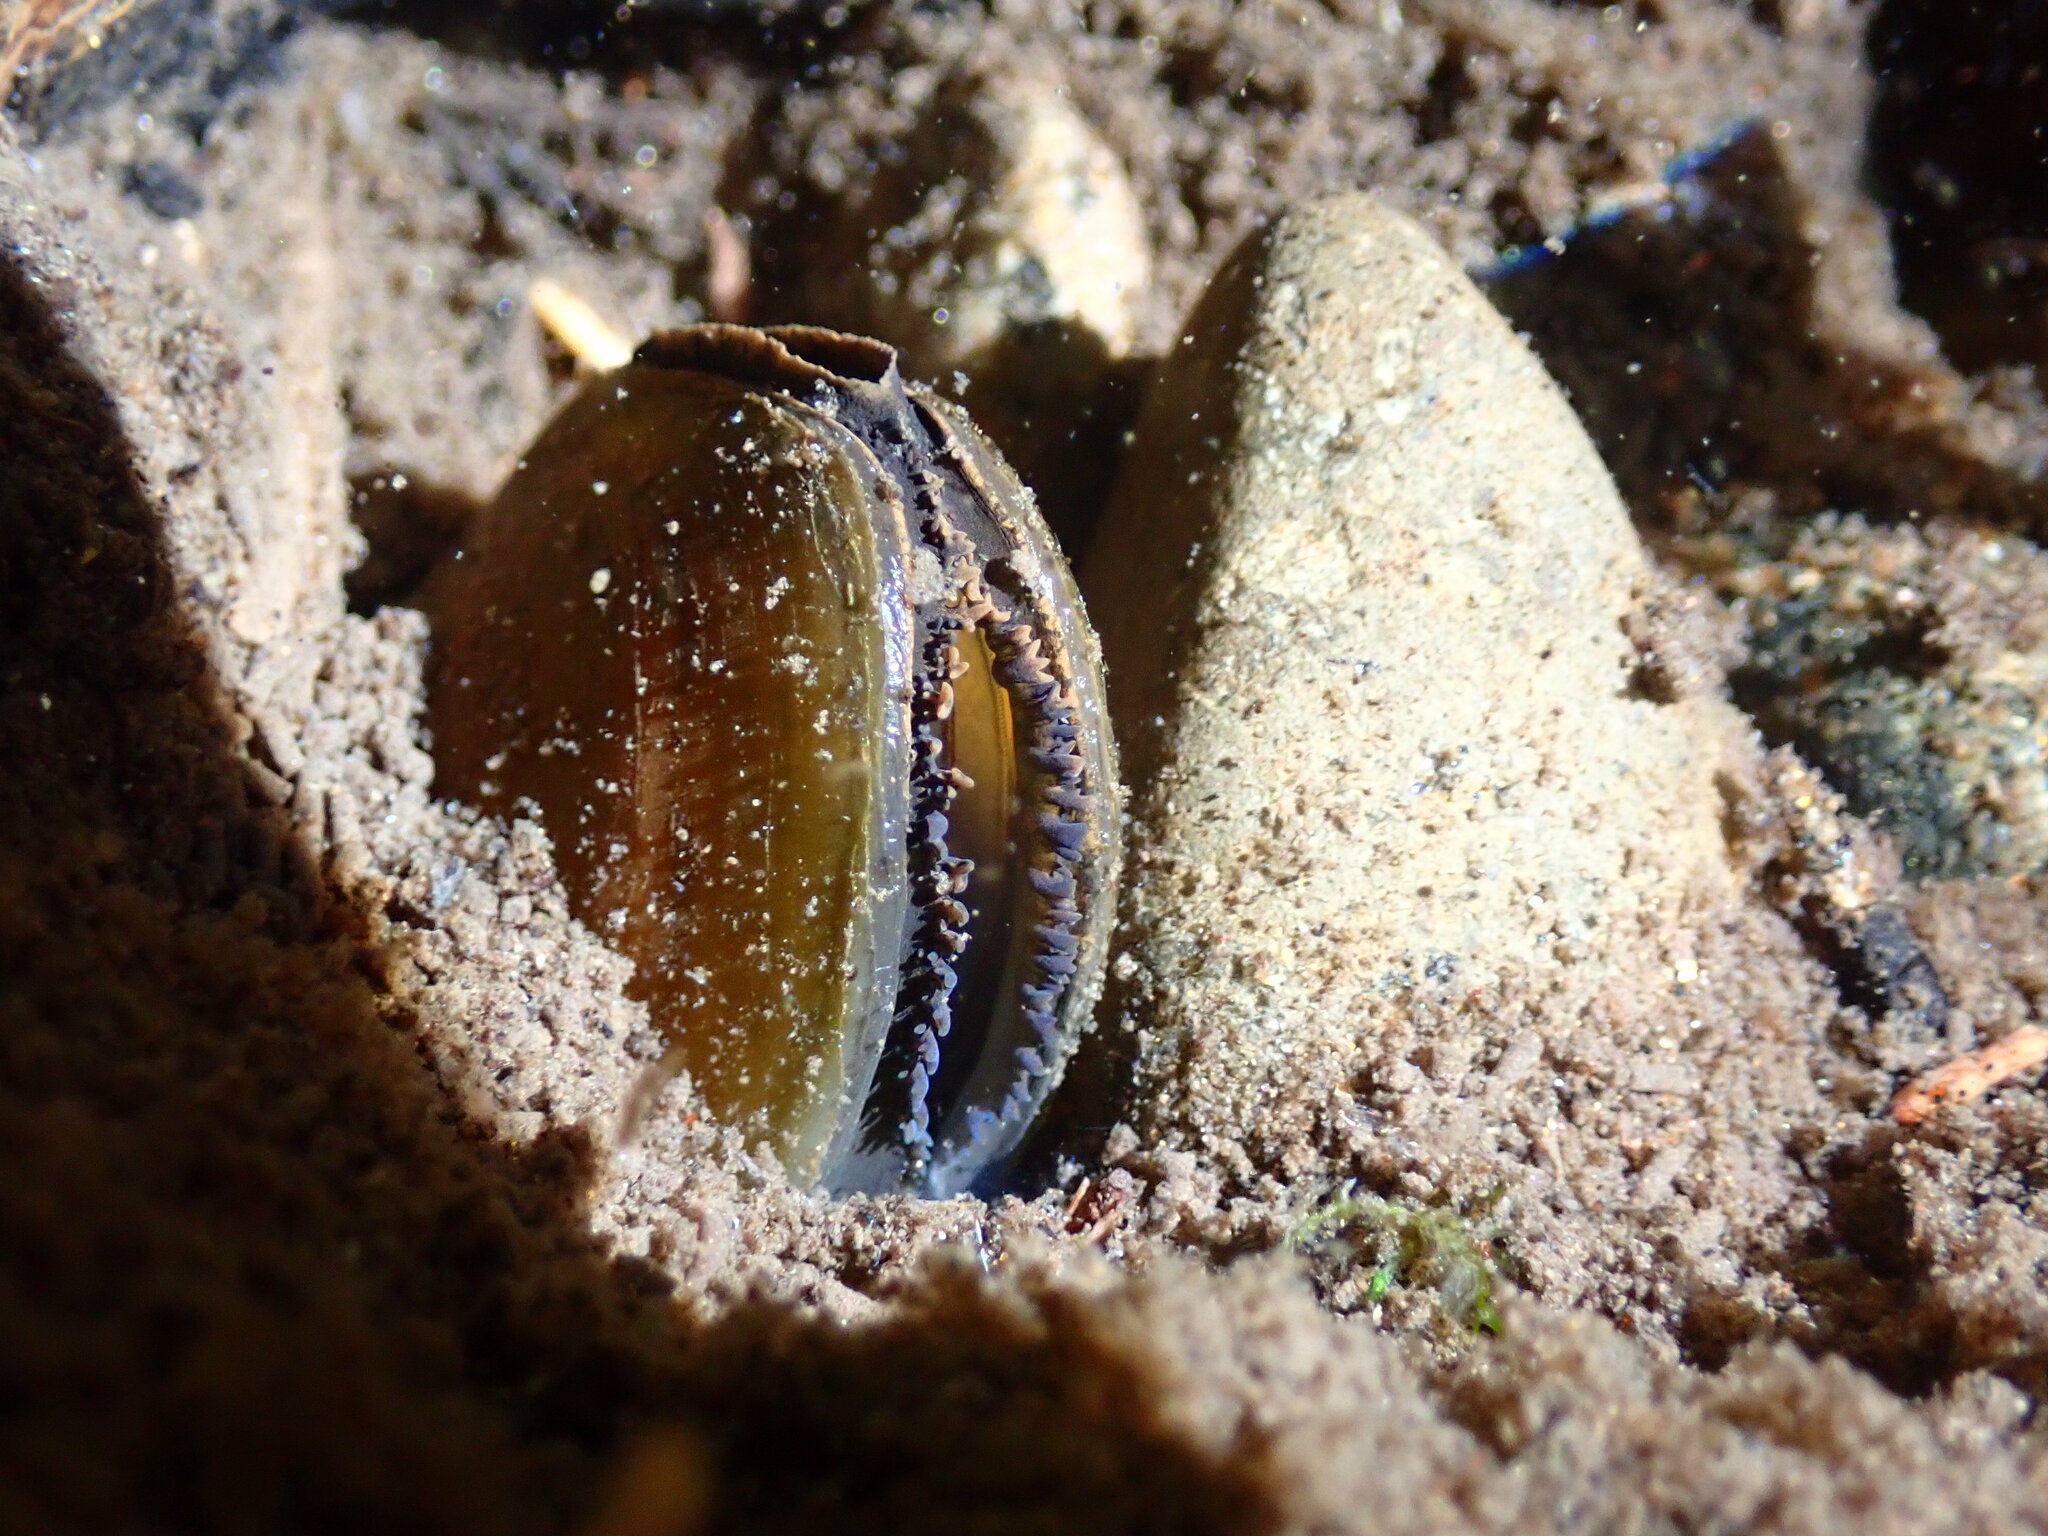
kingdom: Animalia
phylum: Mollusca
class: Bivalvia
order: Unionida
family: Margaritiferidae
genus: Margaritifera
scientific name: Margaritifera falcata
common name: Western pearlshell
